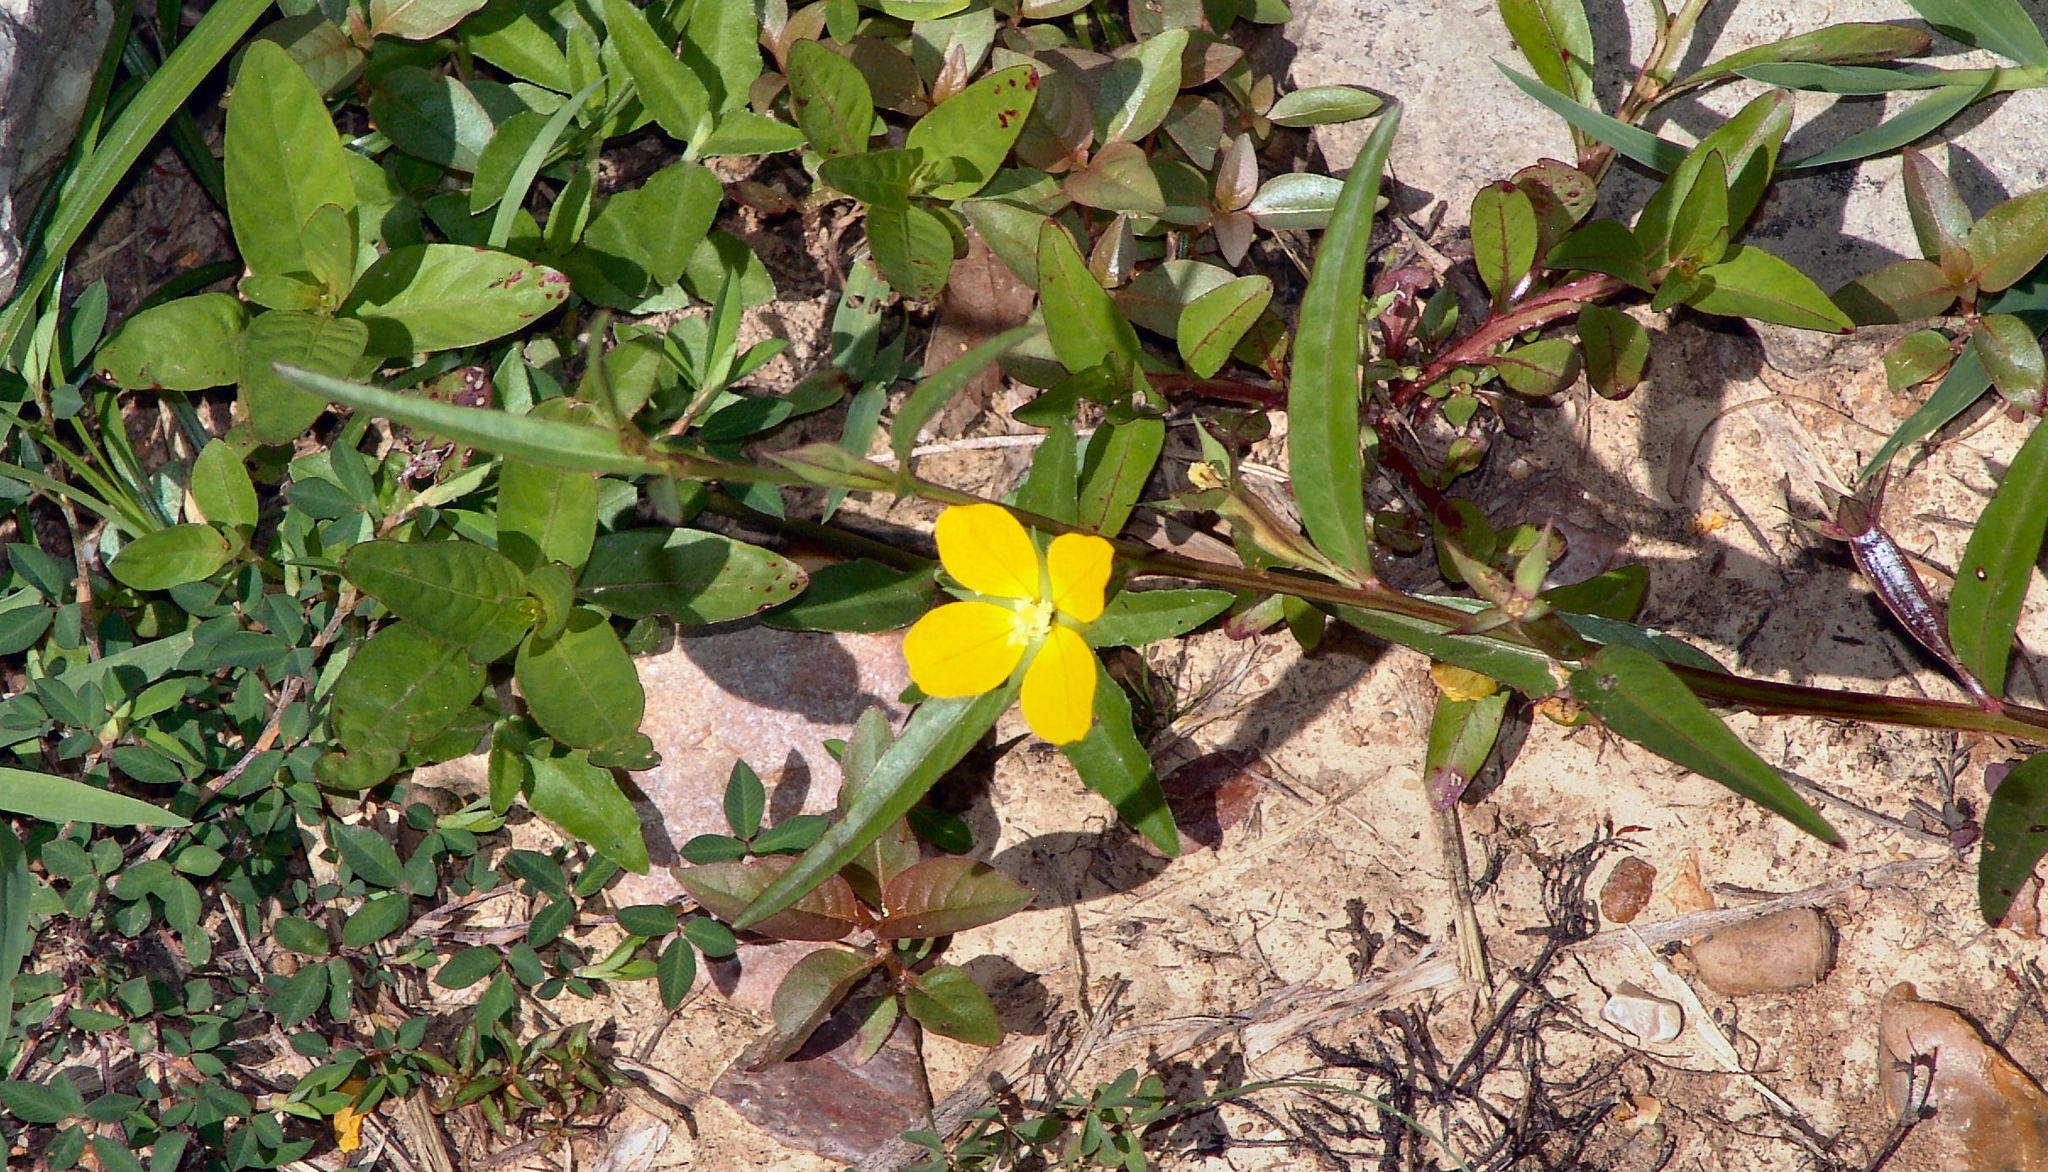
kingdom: Plantae
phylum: Tracheophyta
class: Magnoliopsida
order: Myrtales
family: Onagraceae
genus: Ludwigia
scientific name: Ludwigia decurrens
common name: Winged water-primrose
